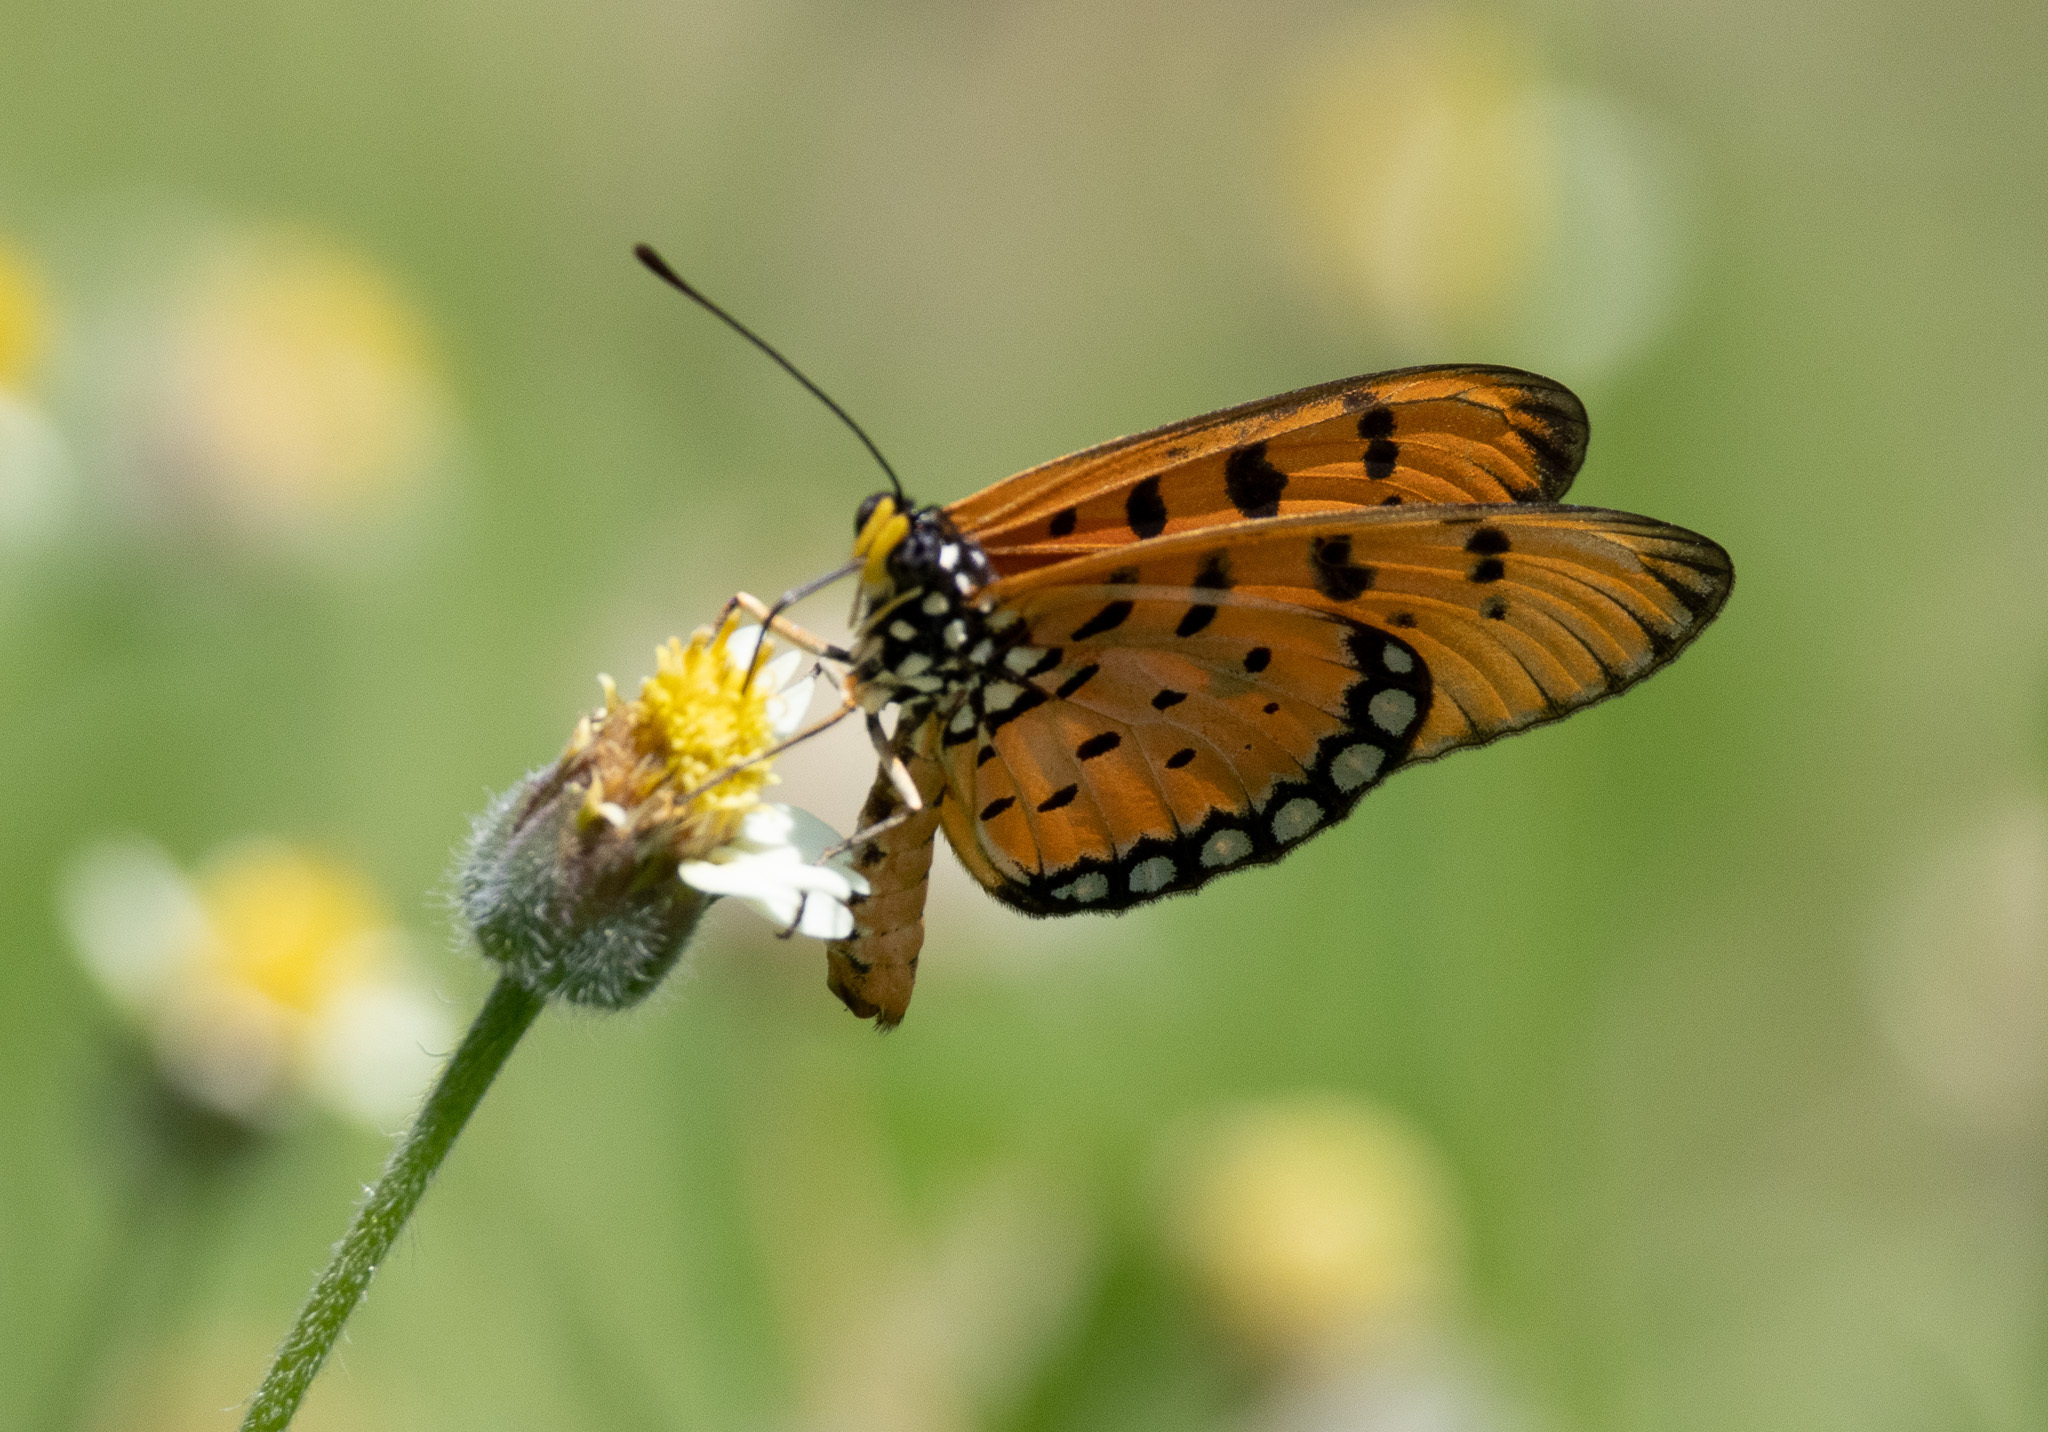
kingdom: Animalia
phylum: Arthropoda
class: Insecta
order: Lepidoptera
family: Nymphalidae
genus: Acraea
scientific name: Acraea terpsicore
